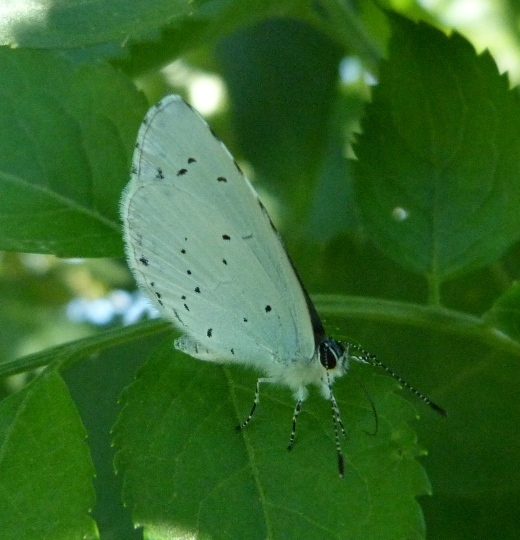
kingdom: Animalia
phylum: Arthropoda
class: Insecta
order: Lepidoptera
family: Lycaenidae
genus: Celastrina
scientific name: Celastrina argiolus
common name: Holly blue
